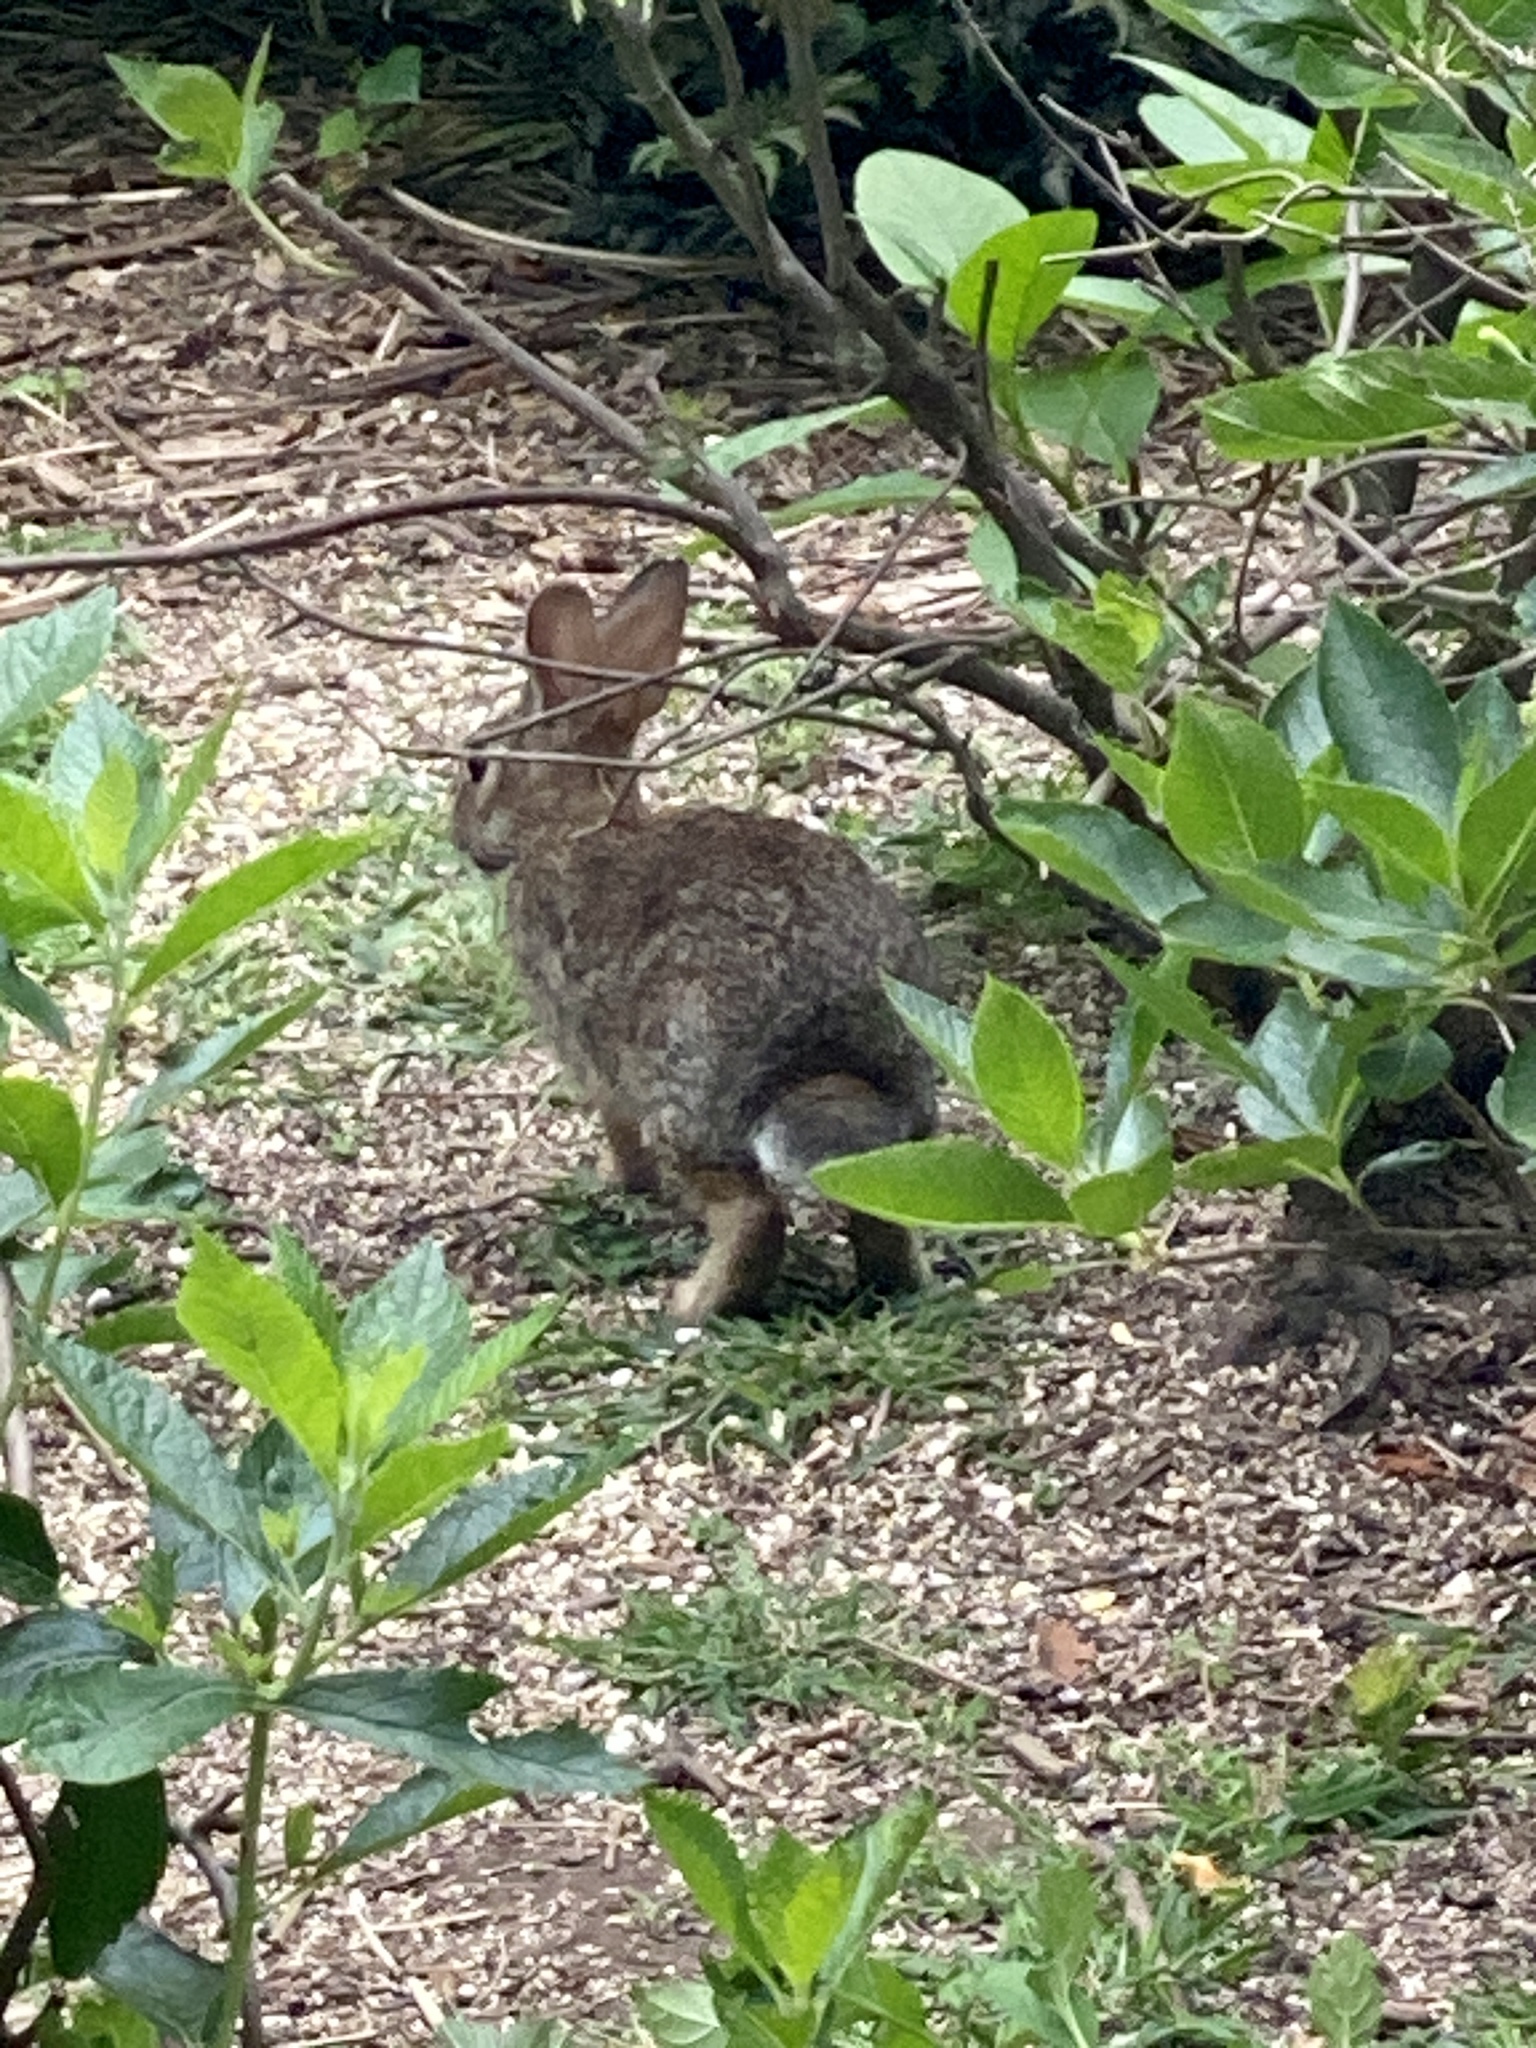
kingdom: Animalia
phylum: Chordata
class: Mammalia
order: Lagomorpha
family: Leporidae
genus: Sylvilagus
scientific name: Sylvilagus floridanus
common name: Eastern cottontail
